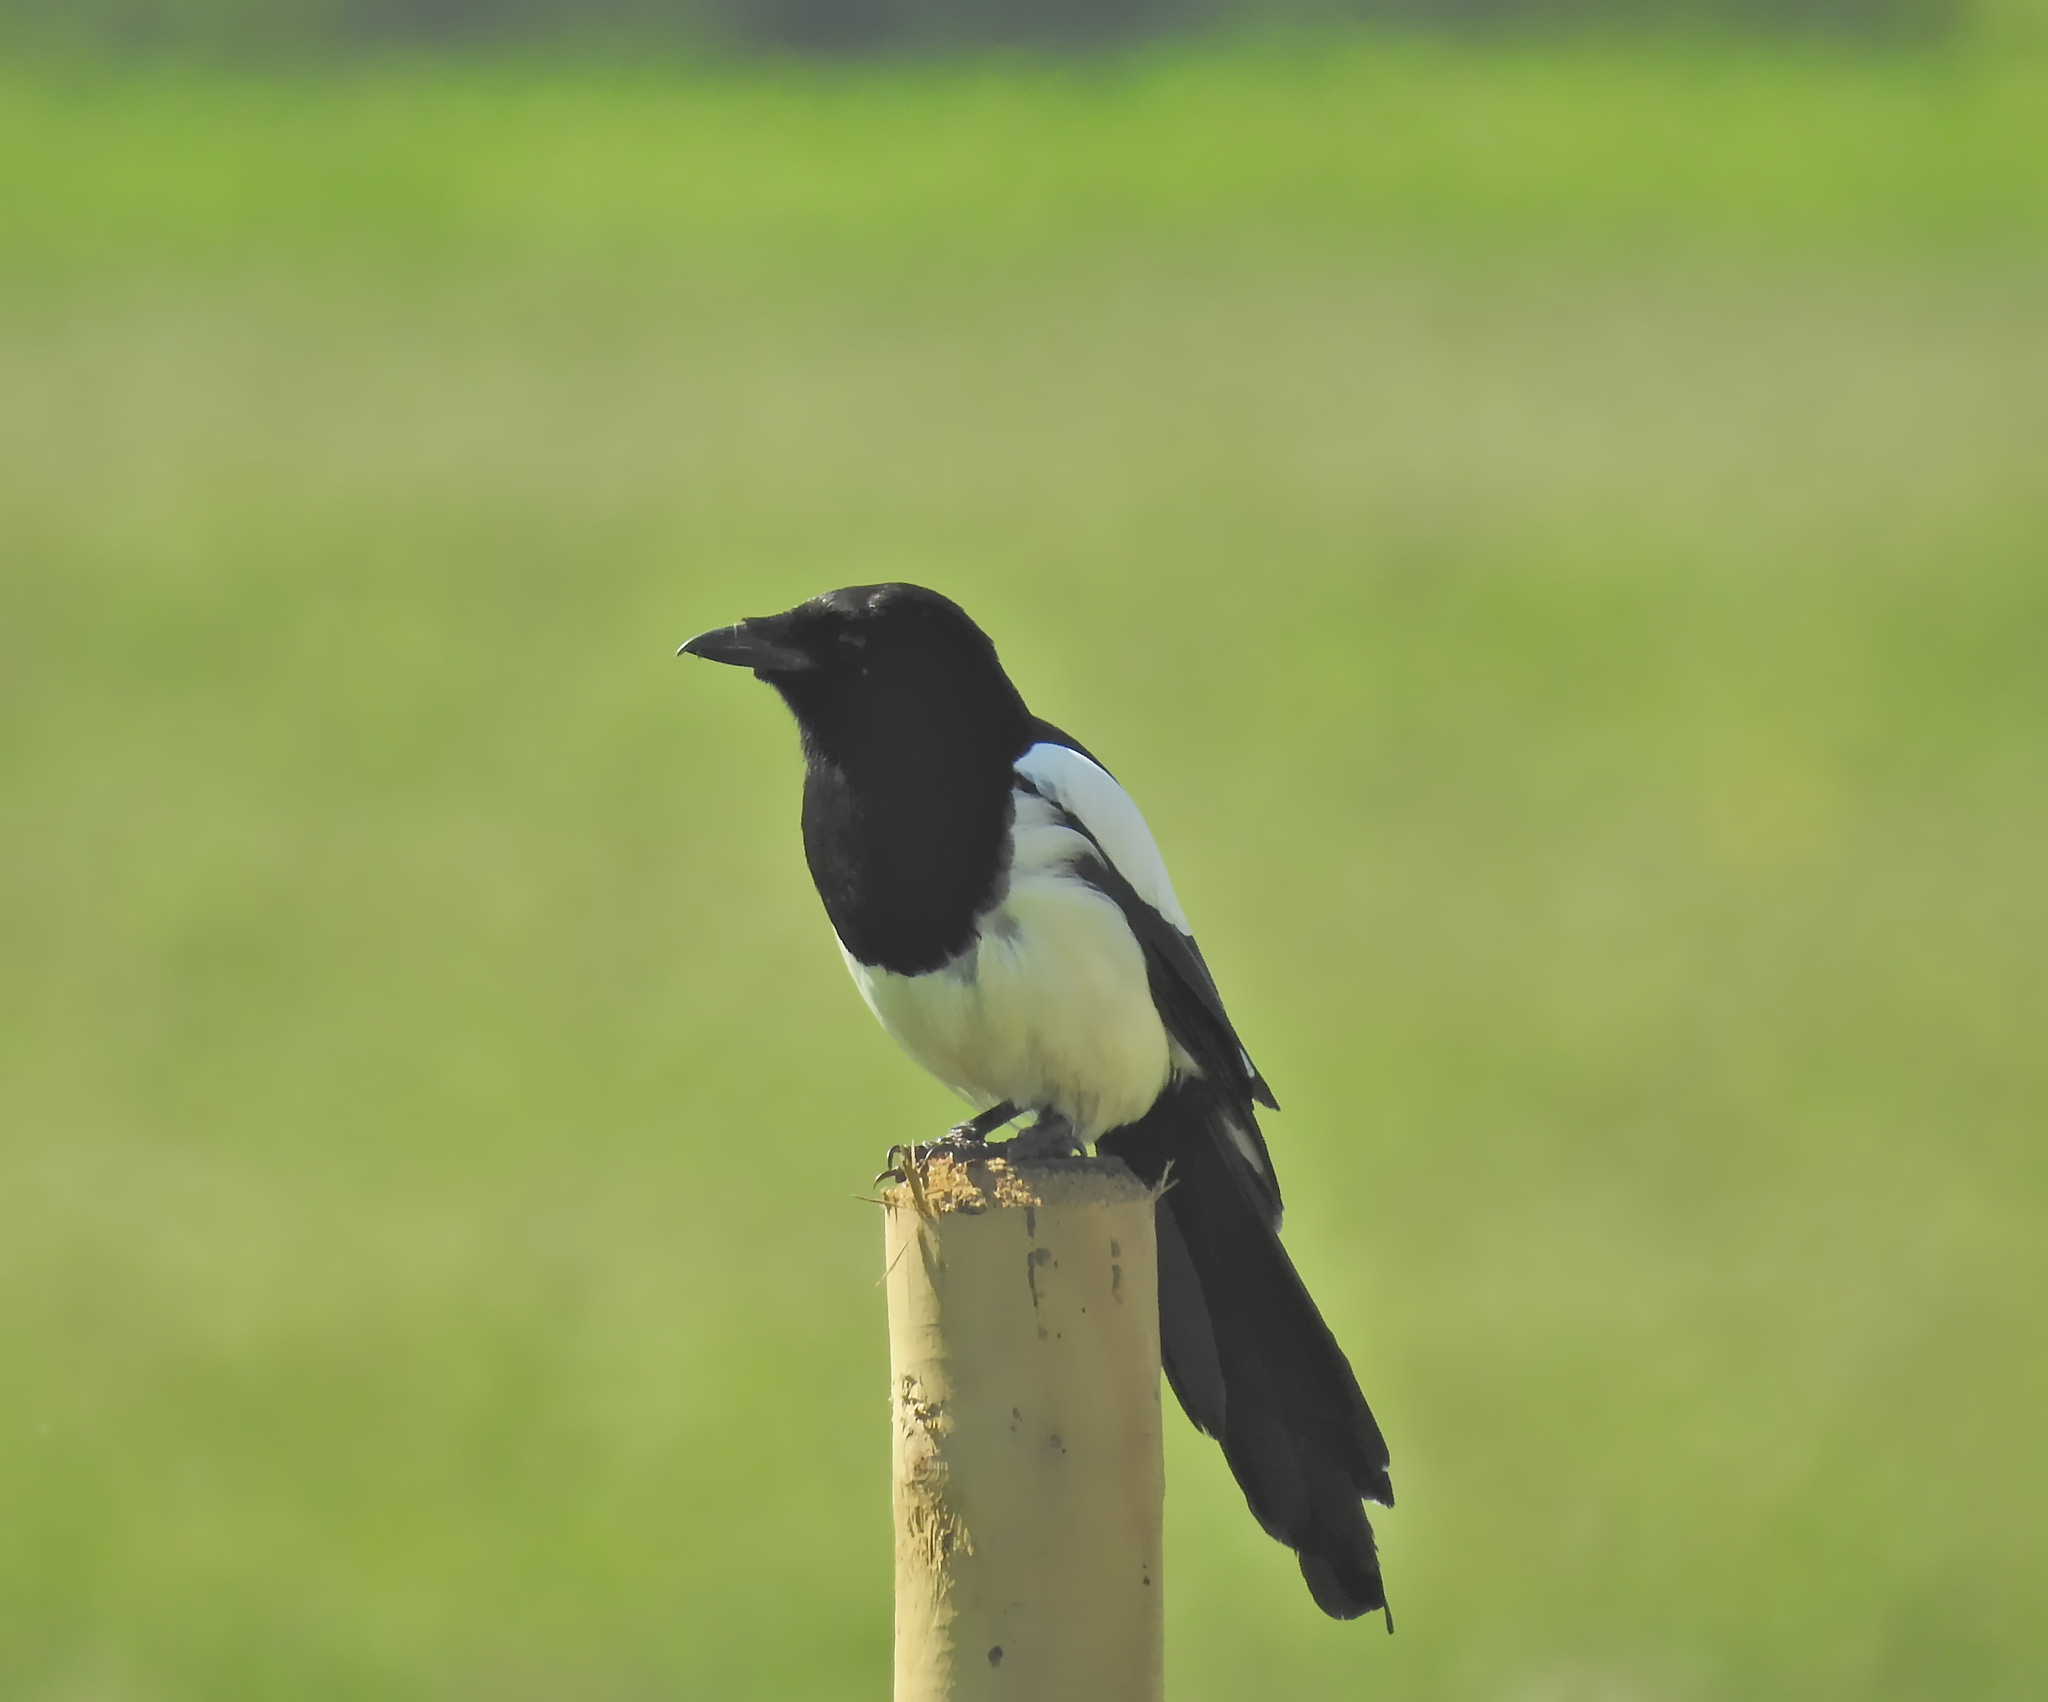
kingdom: Animalia
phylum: Chordata
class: Aves
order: Passeriformes
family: Corvidae
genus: Pica
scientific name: Pica pica
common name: Eurasian magpie
